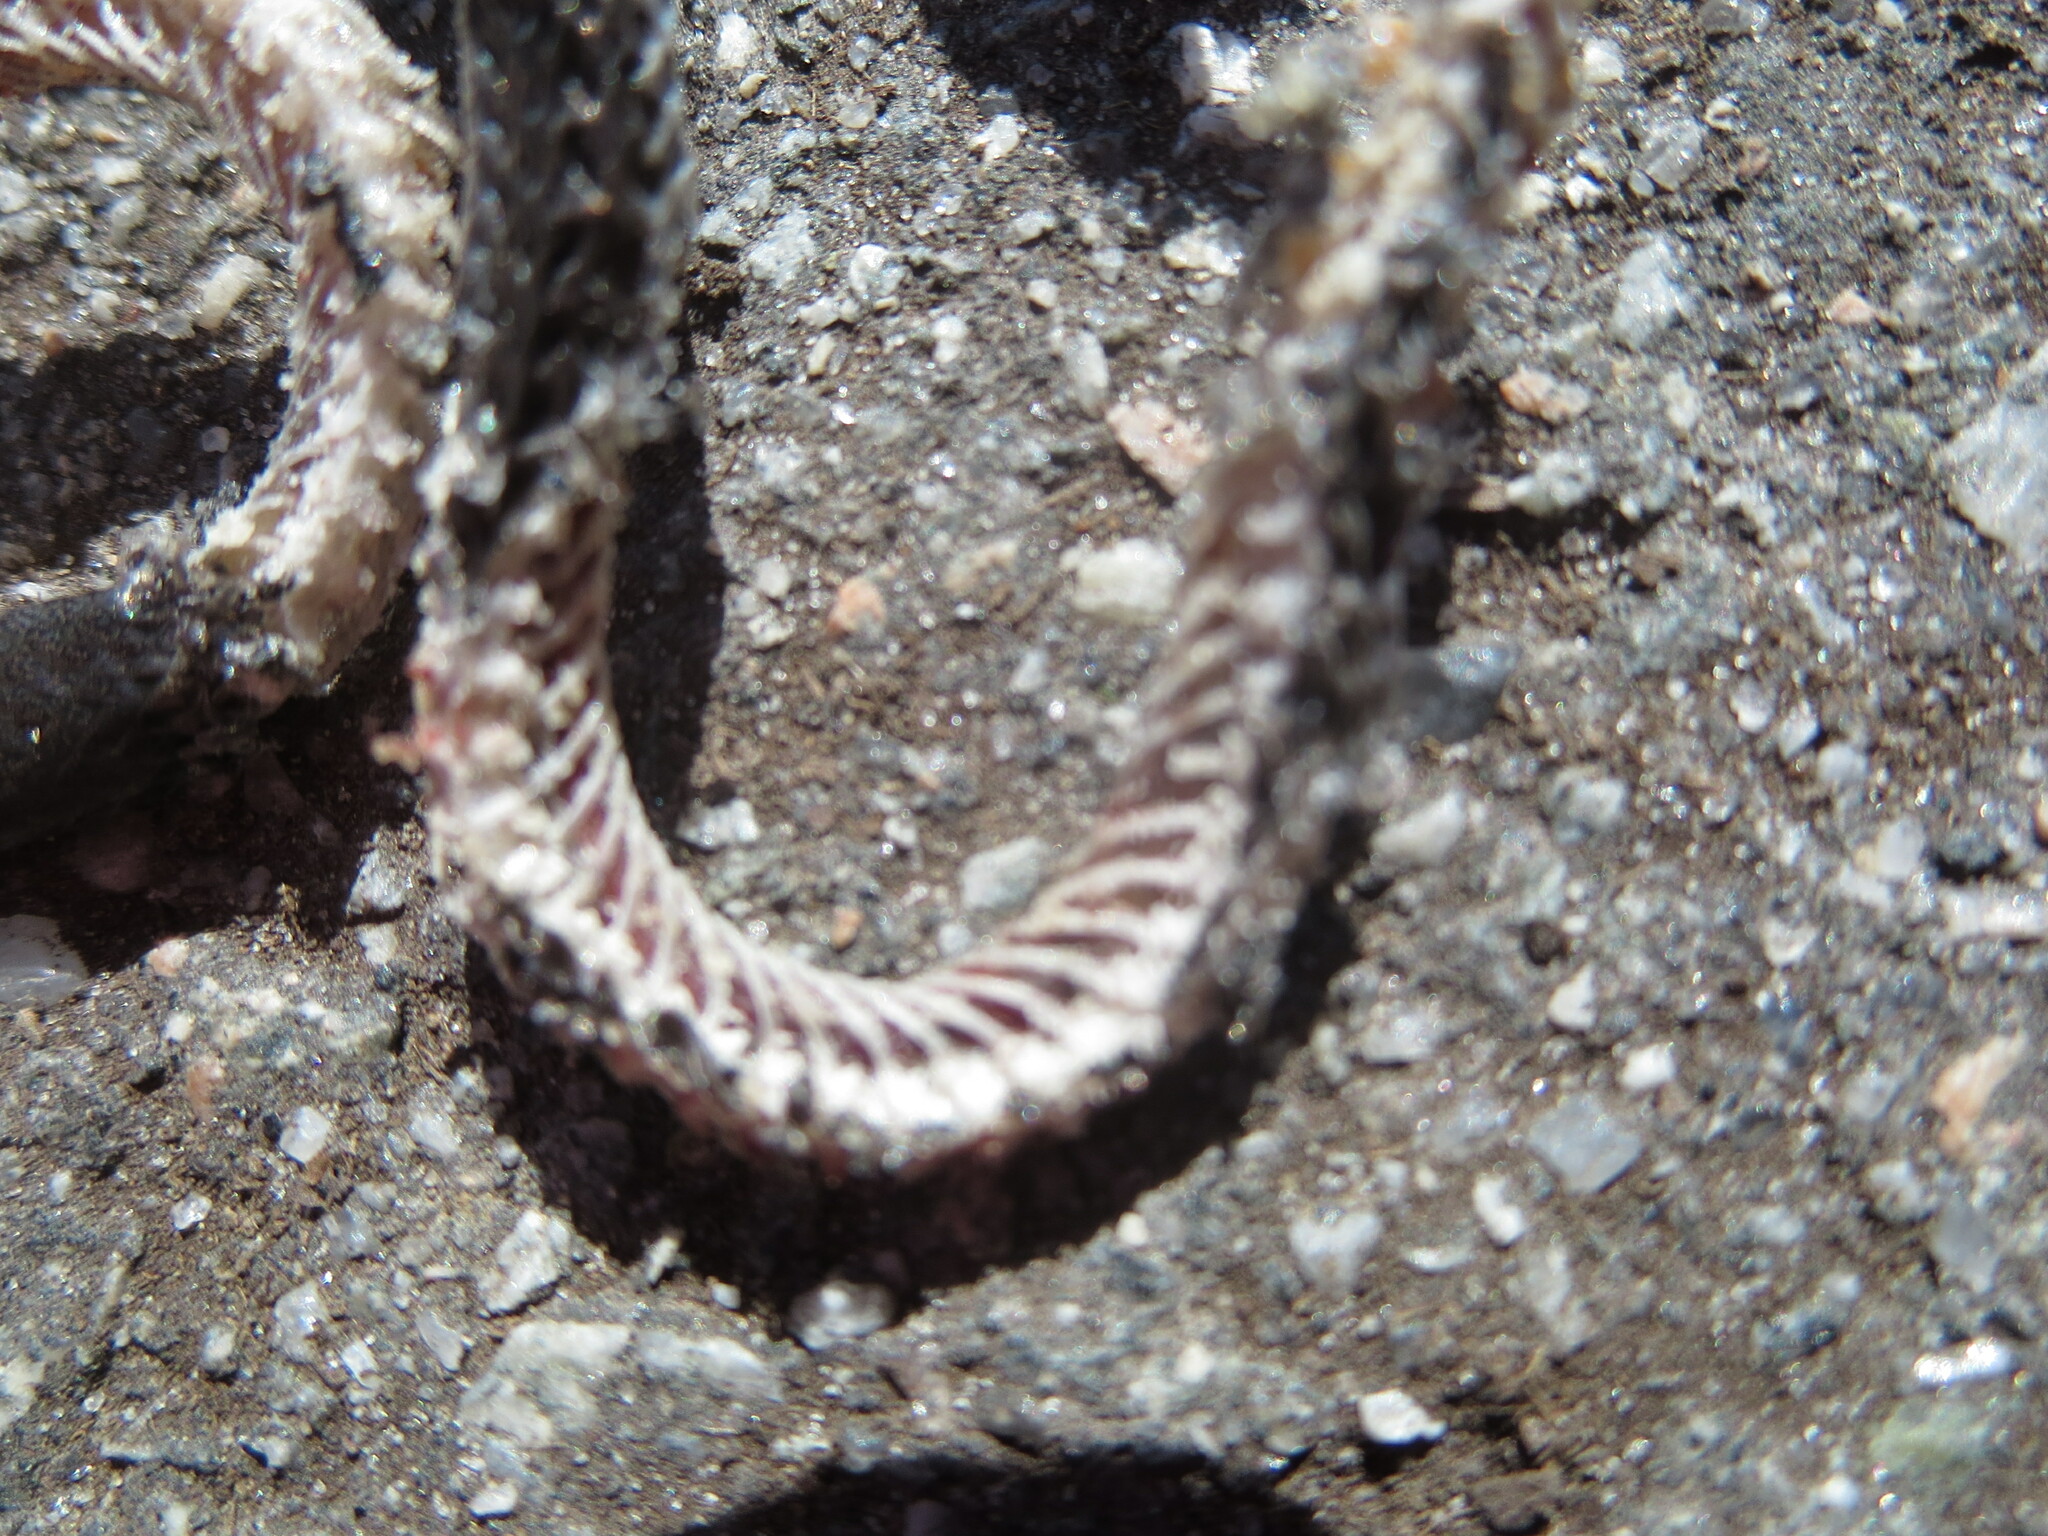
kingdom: Animalia
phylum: Chordata
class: Squamata
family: Colubridae
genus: Diadophis
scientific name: Diadophis punctatus
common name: Ringneck snake
